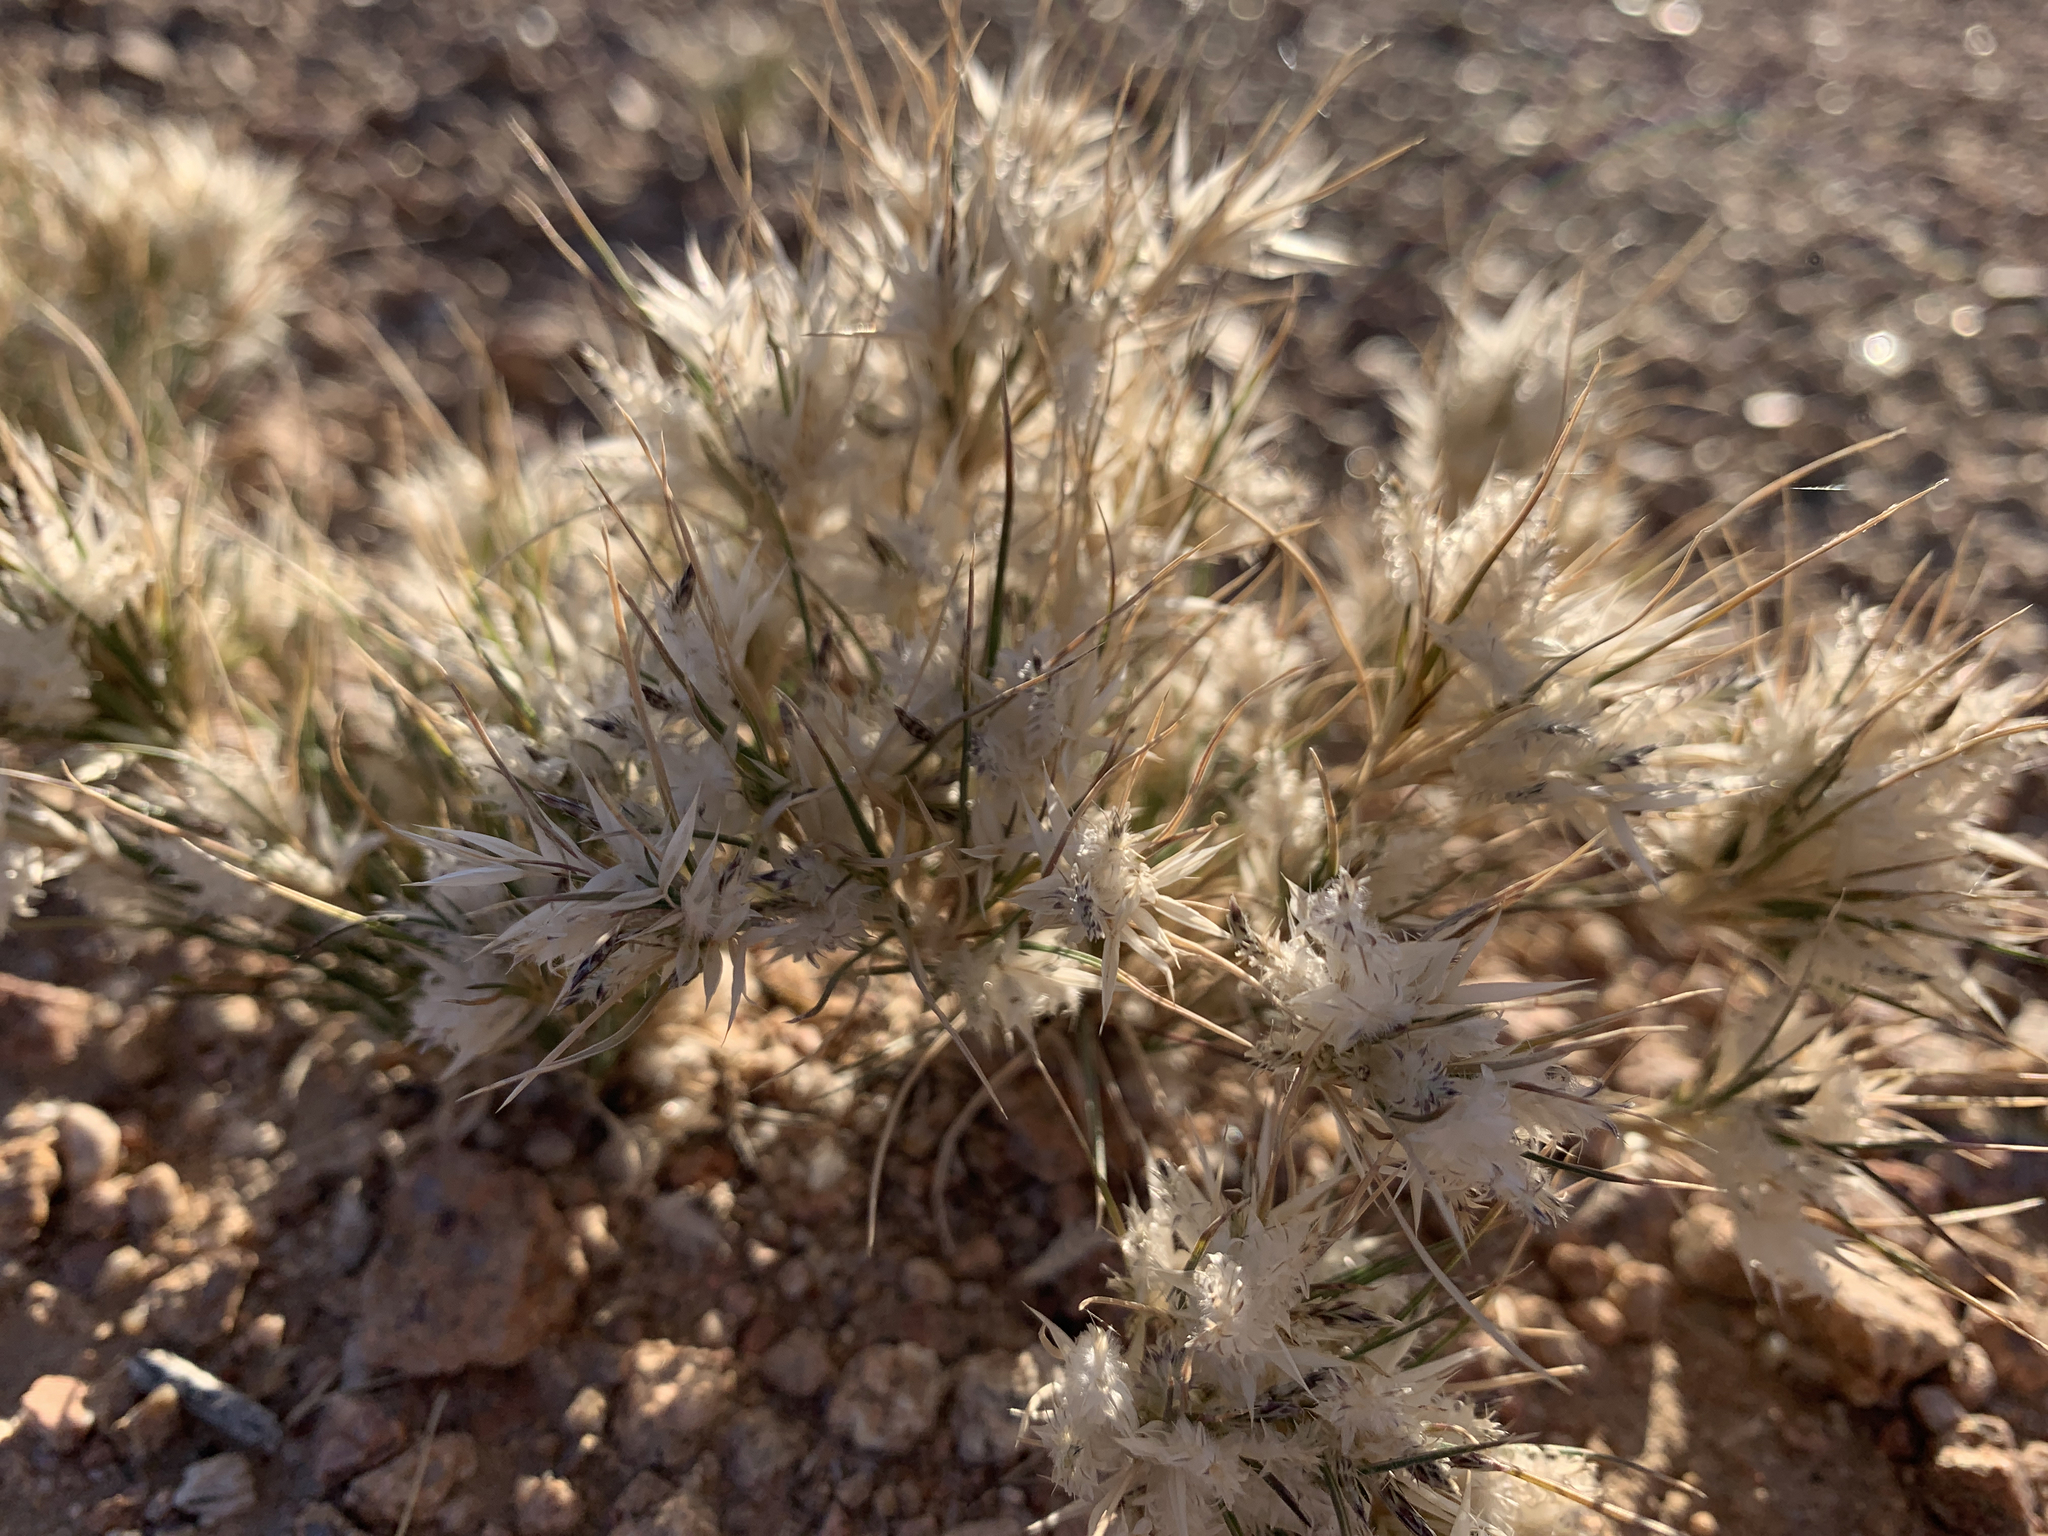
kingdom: Plantae
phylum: Tracheophyta
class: Liliopsida
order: Poales
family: Poaceae
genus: Dasyochloa
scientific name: Dasyochloa pulchella
